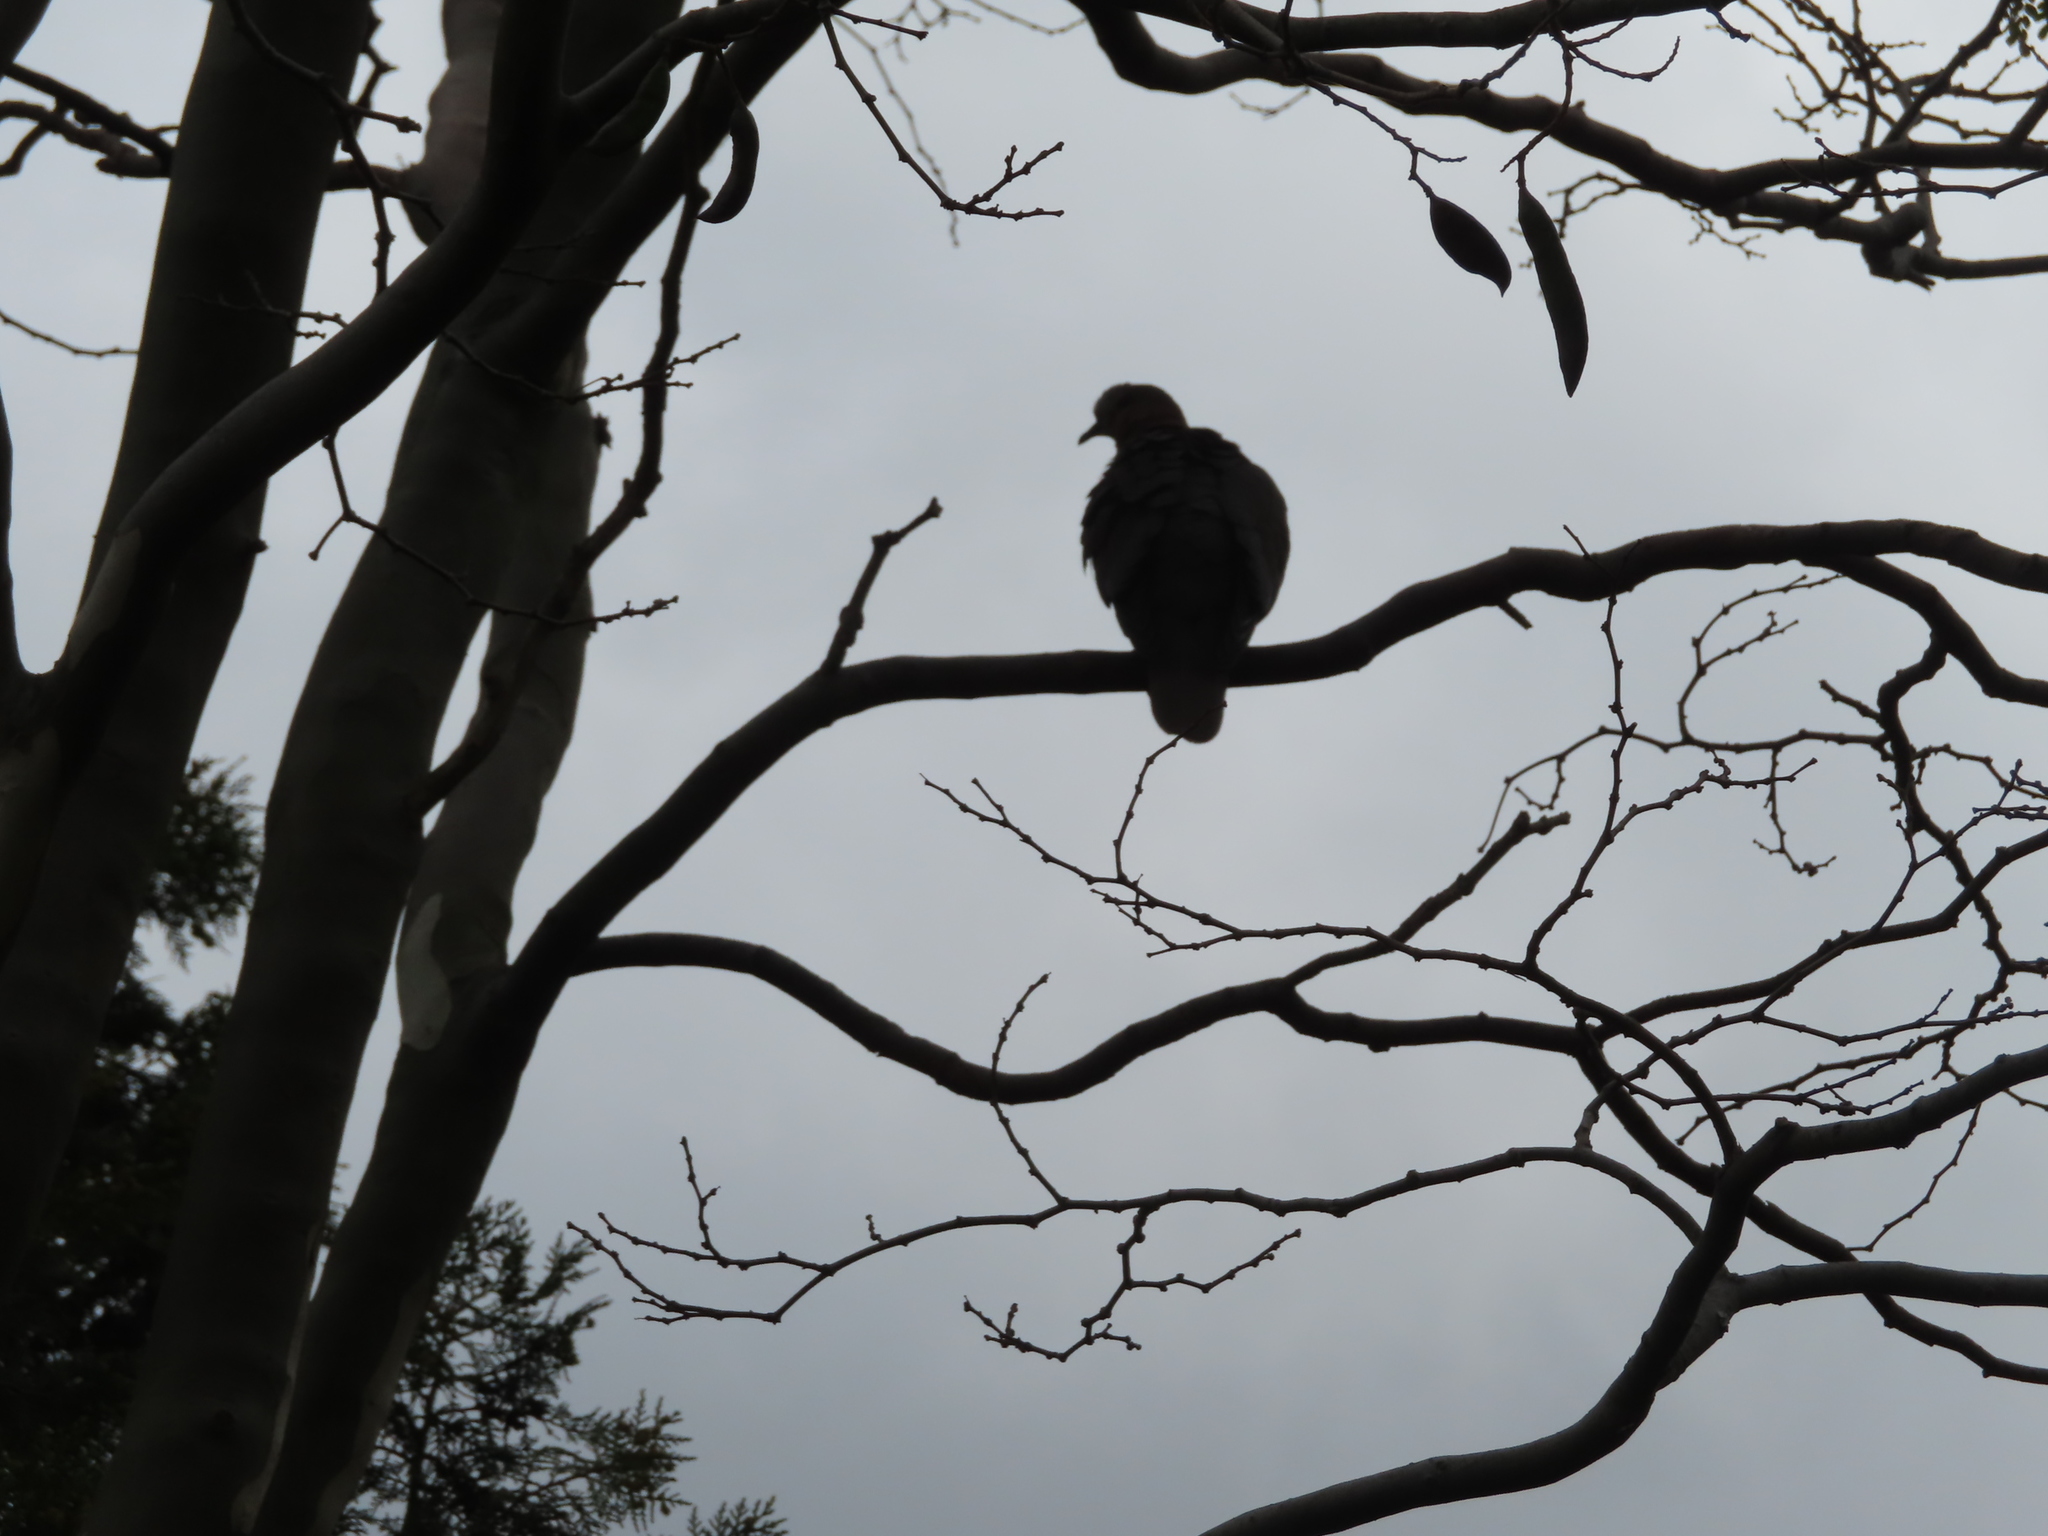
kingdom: Animalia
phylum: Chordata
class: Aves
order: Columbiformes
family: Columbidae
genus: Streptopelia
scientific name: Streptopelia semitorquata
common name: Red-eyed dove
